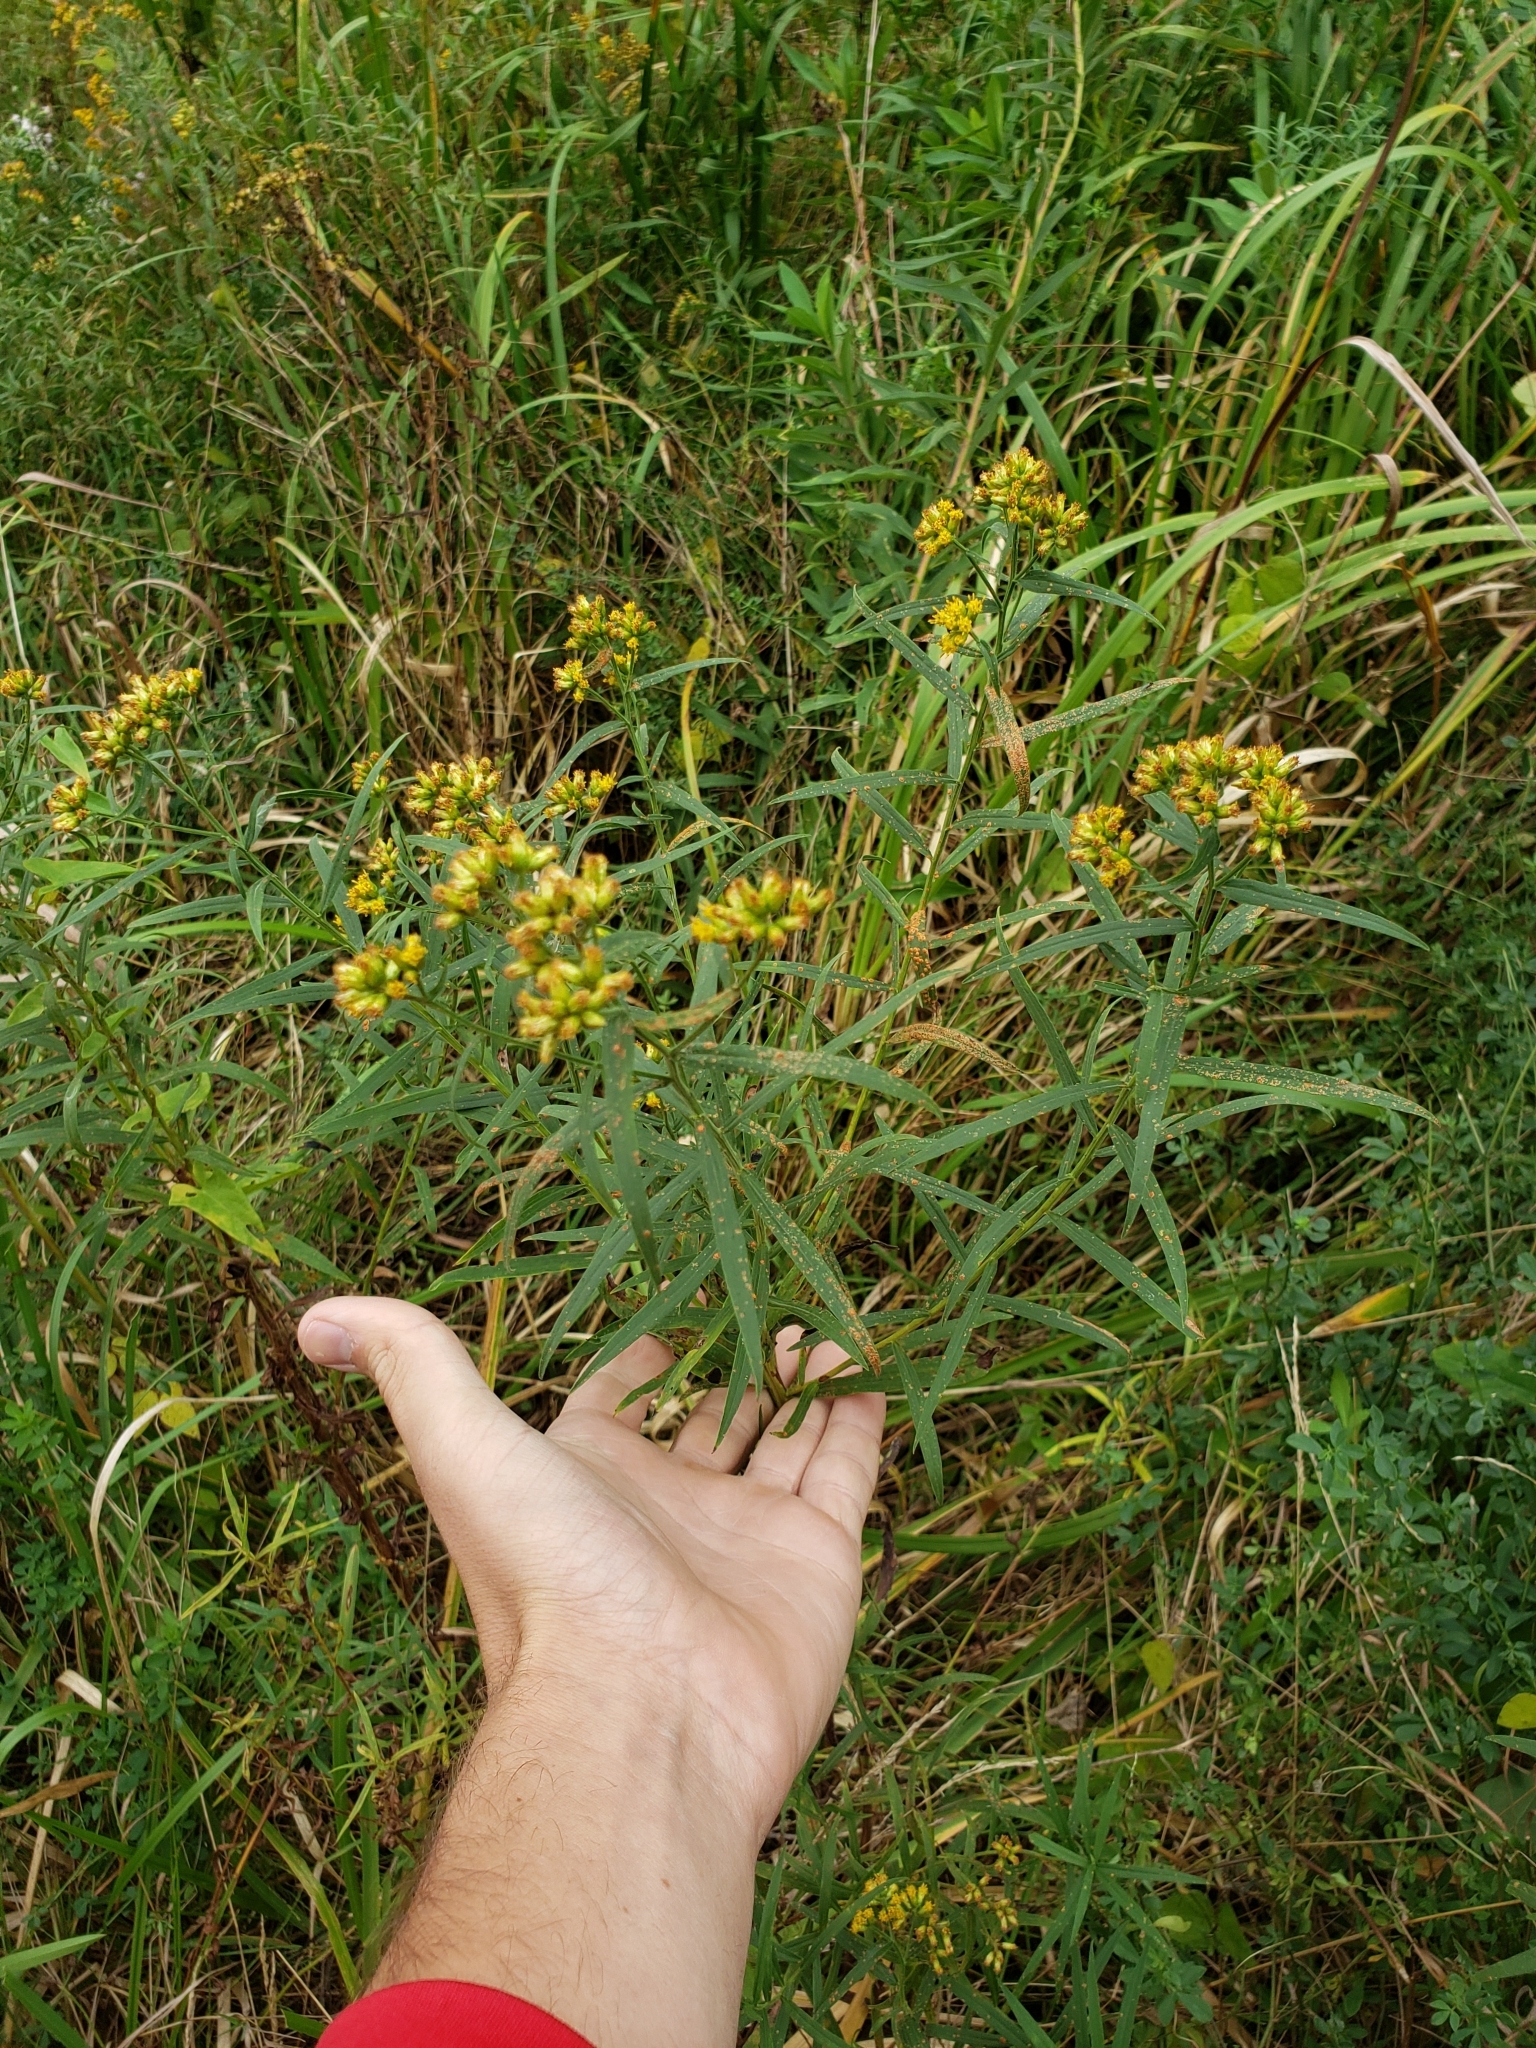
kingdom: Plantae
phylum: Tracheophyta
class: Magnoliopsida
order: Asterales
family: Asteraceae
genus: Euthamia
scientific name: Euthamia graminifolia
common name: Common goldentop
